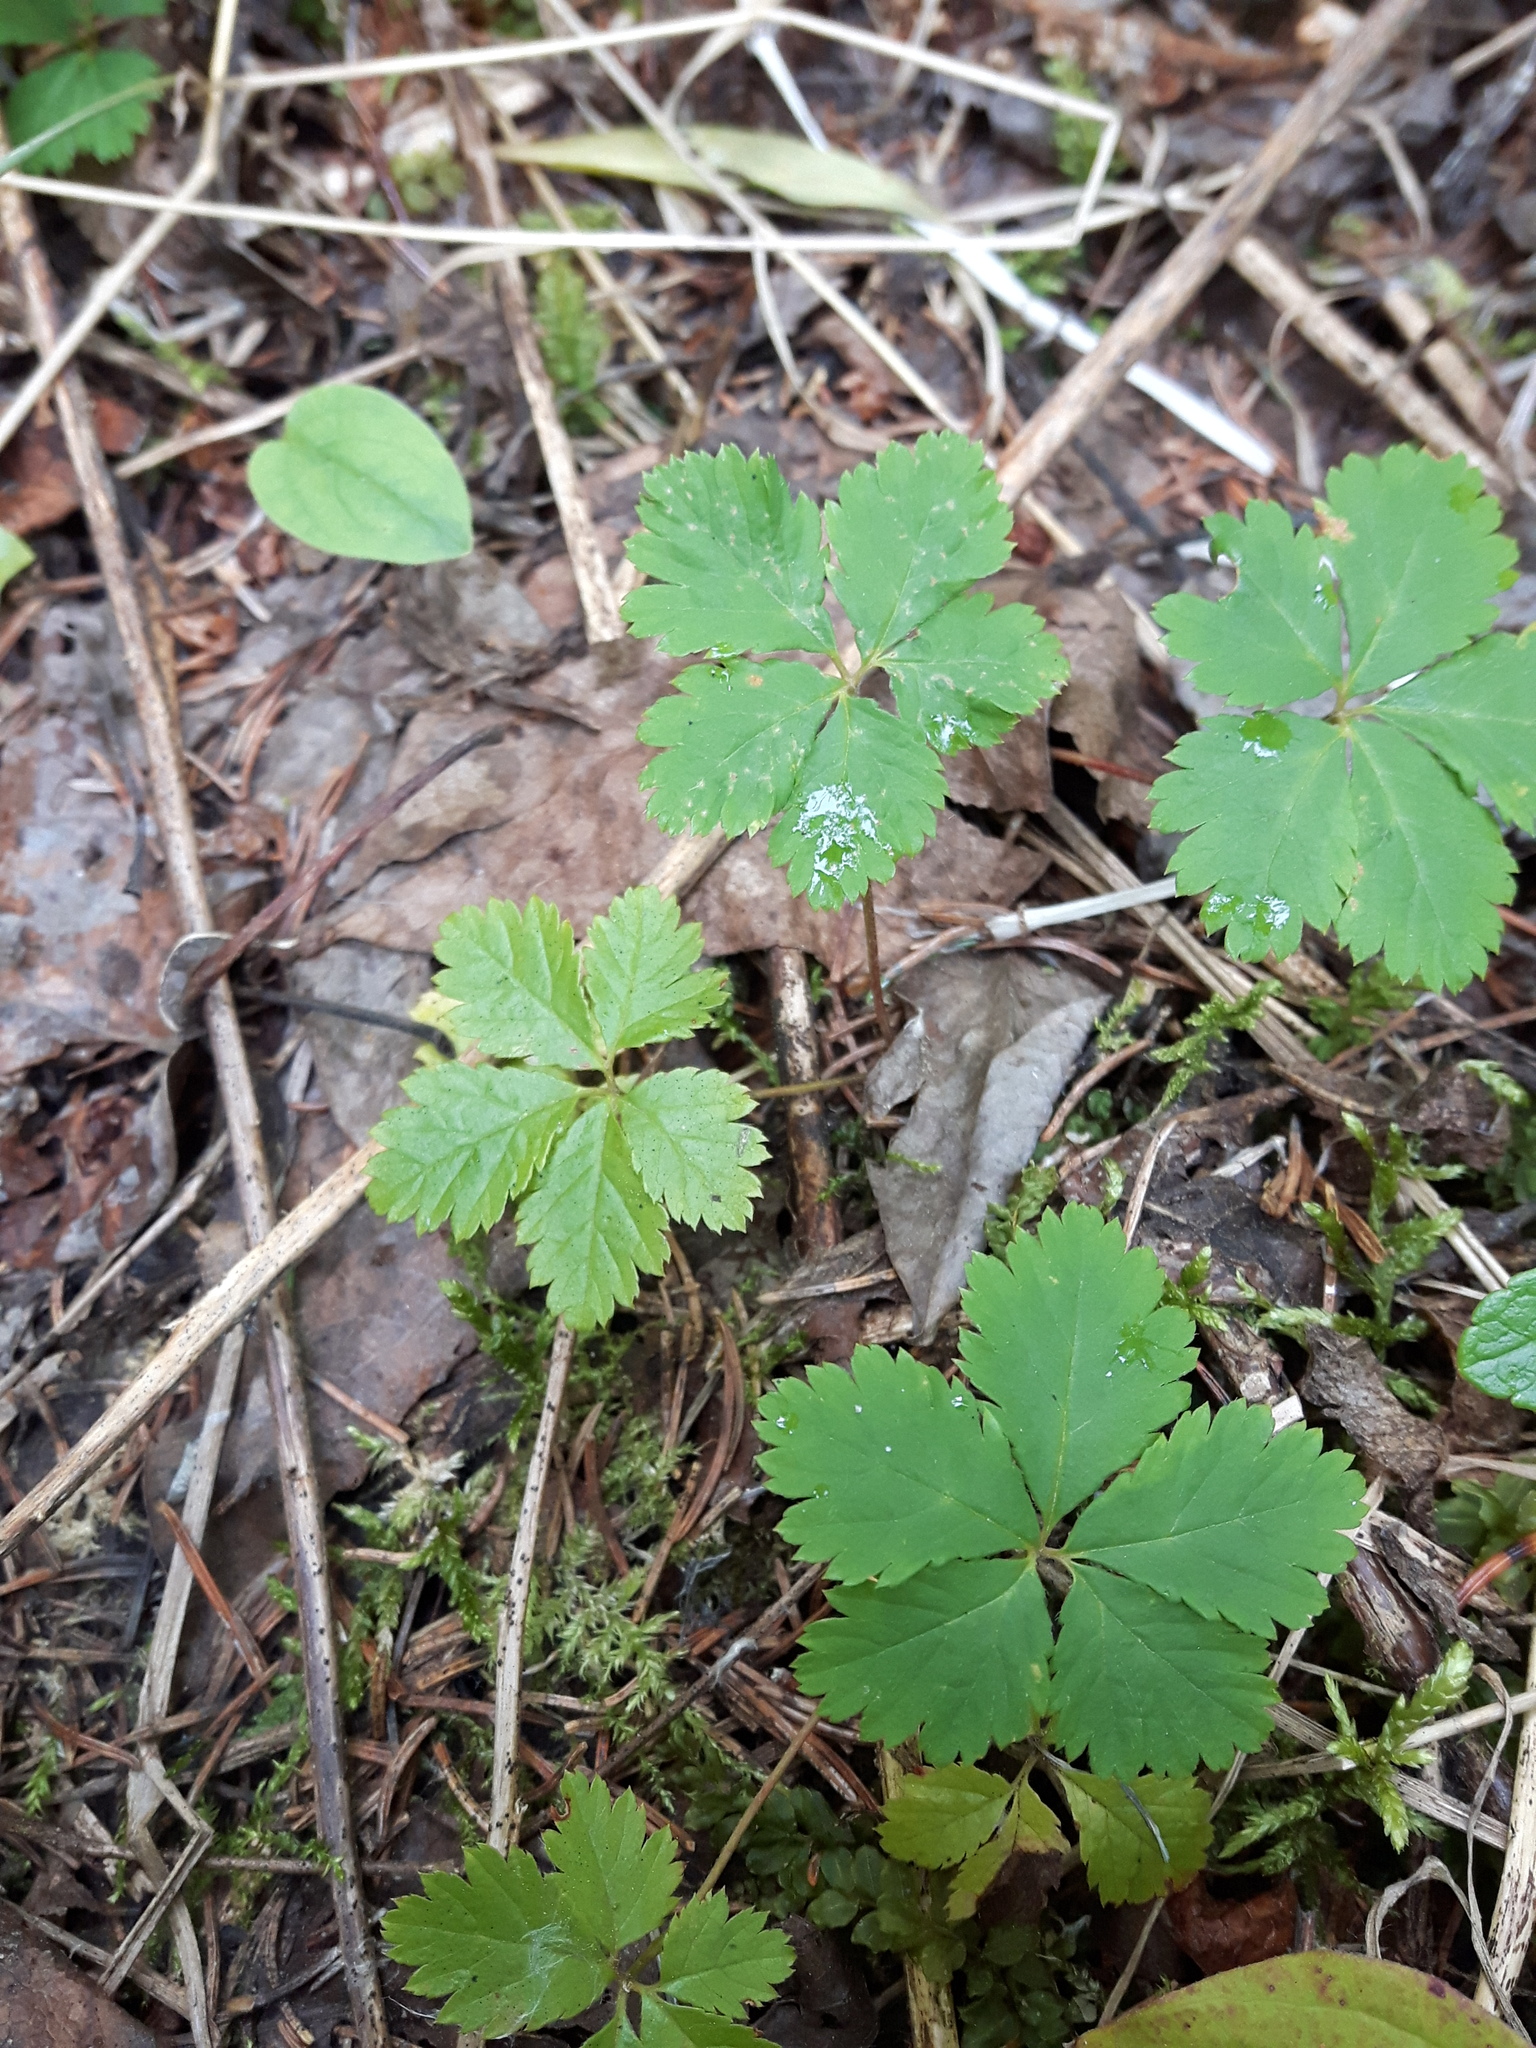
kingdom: Plantae
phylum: Tracheophyta
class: Magnoliopsida
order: Rosales
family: Rosaceae
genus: Rubus
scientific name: Rubus pedatus
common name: Creeping raspberry
